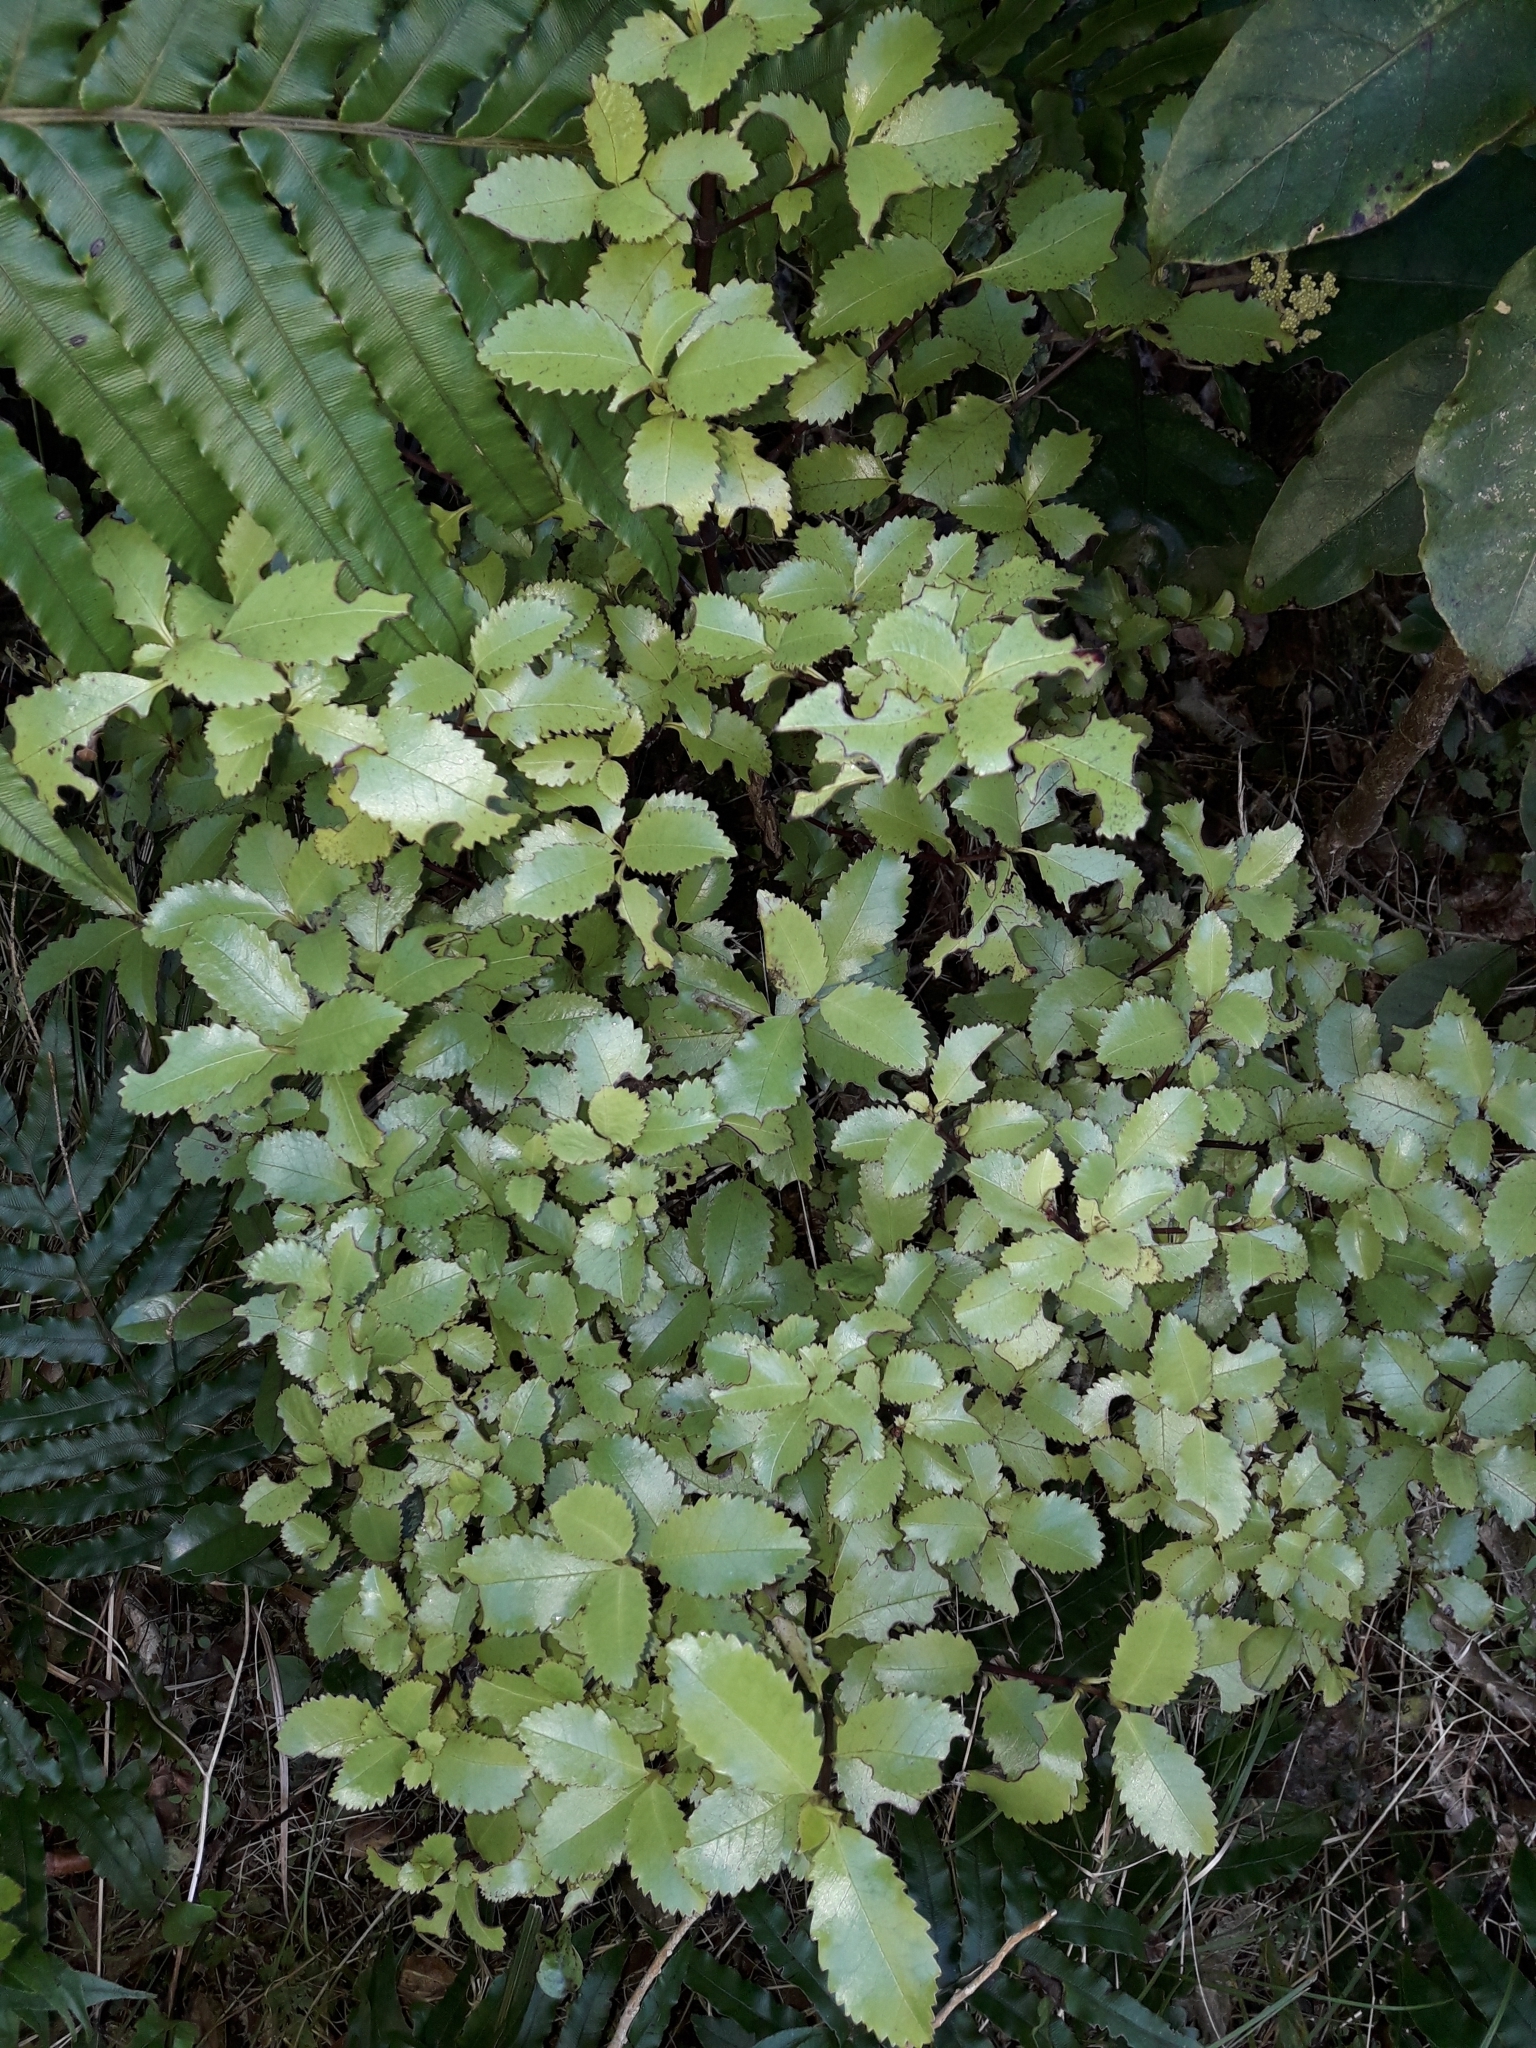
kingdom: Plantae
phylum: Tracheophyta
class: Magnoliopsida
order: Chloranthales
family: Chloranthaceae
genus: Ascarina
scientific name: Ascarina lucida
